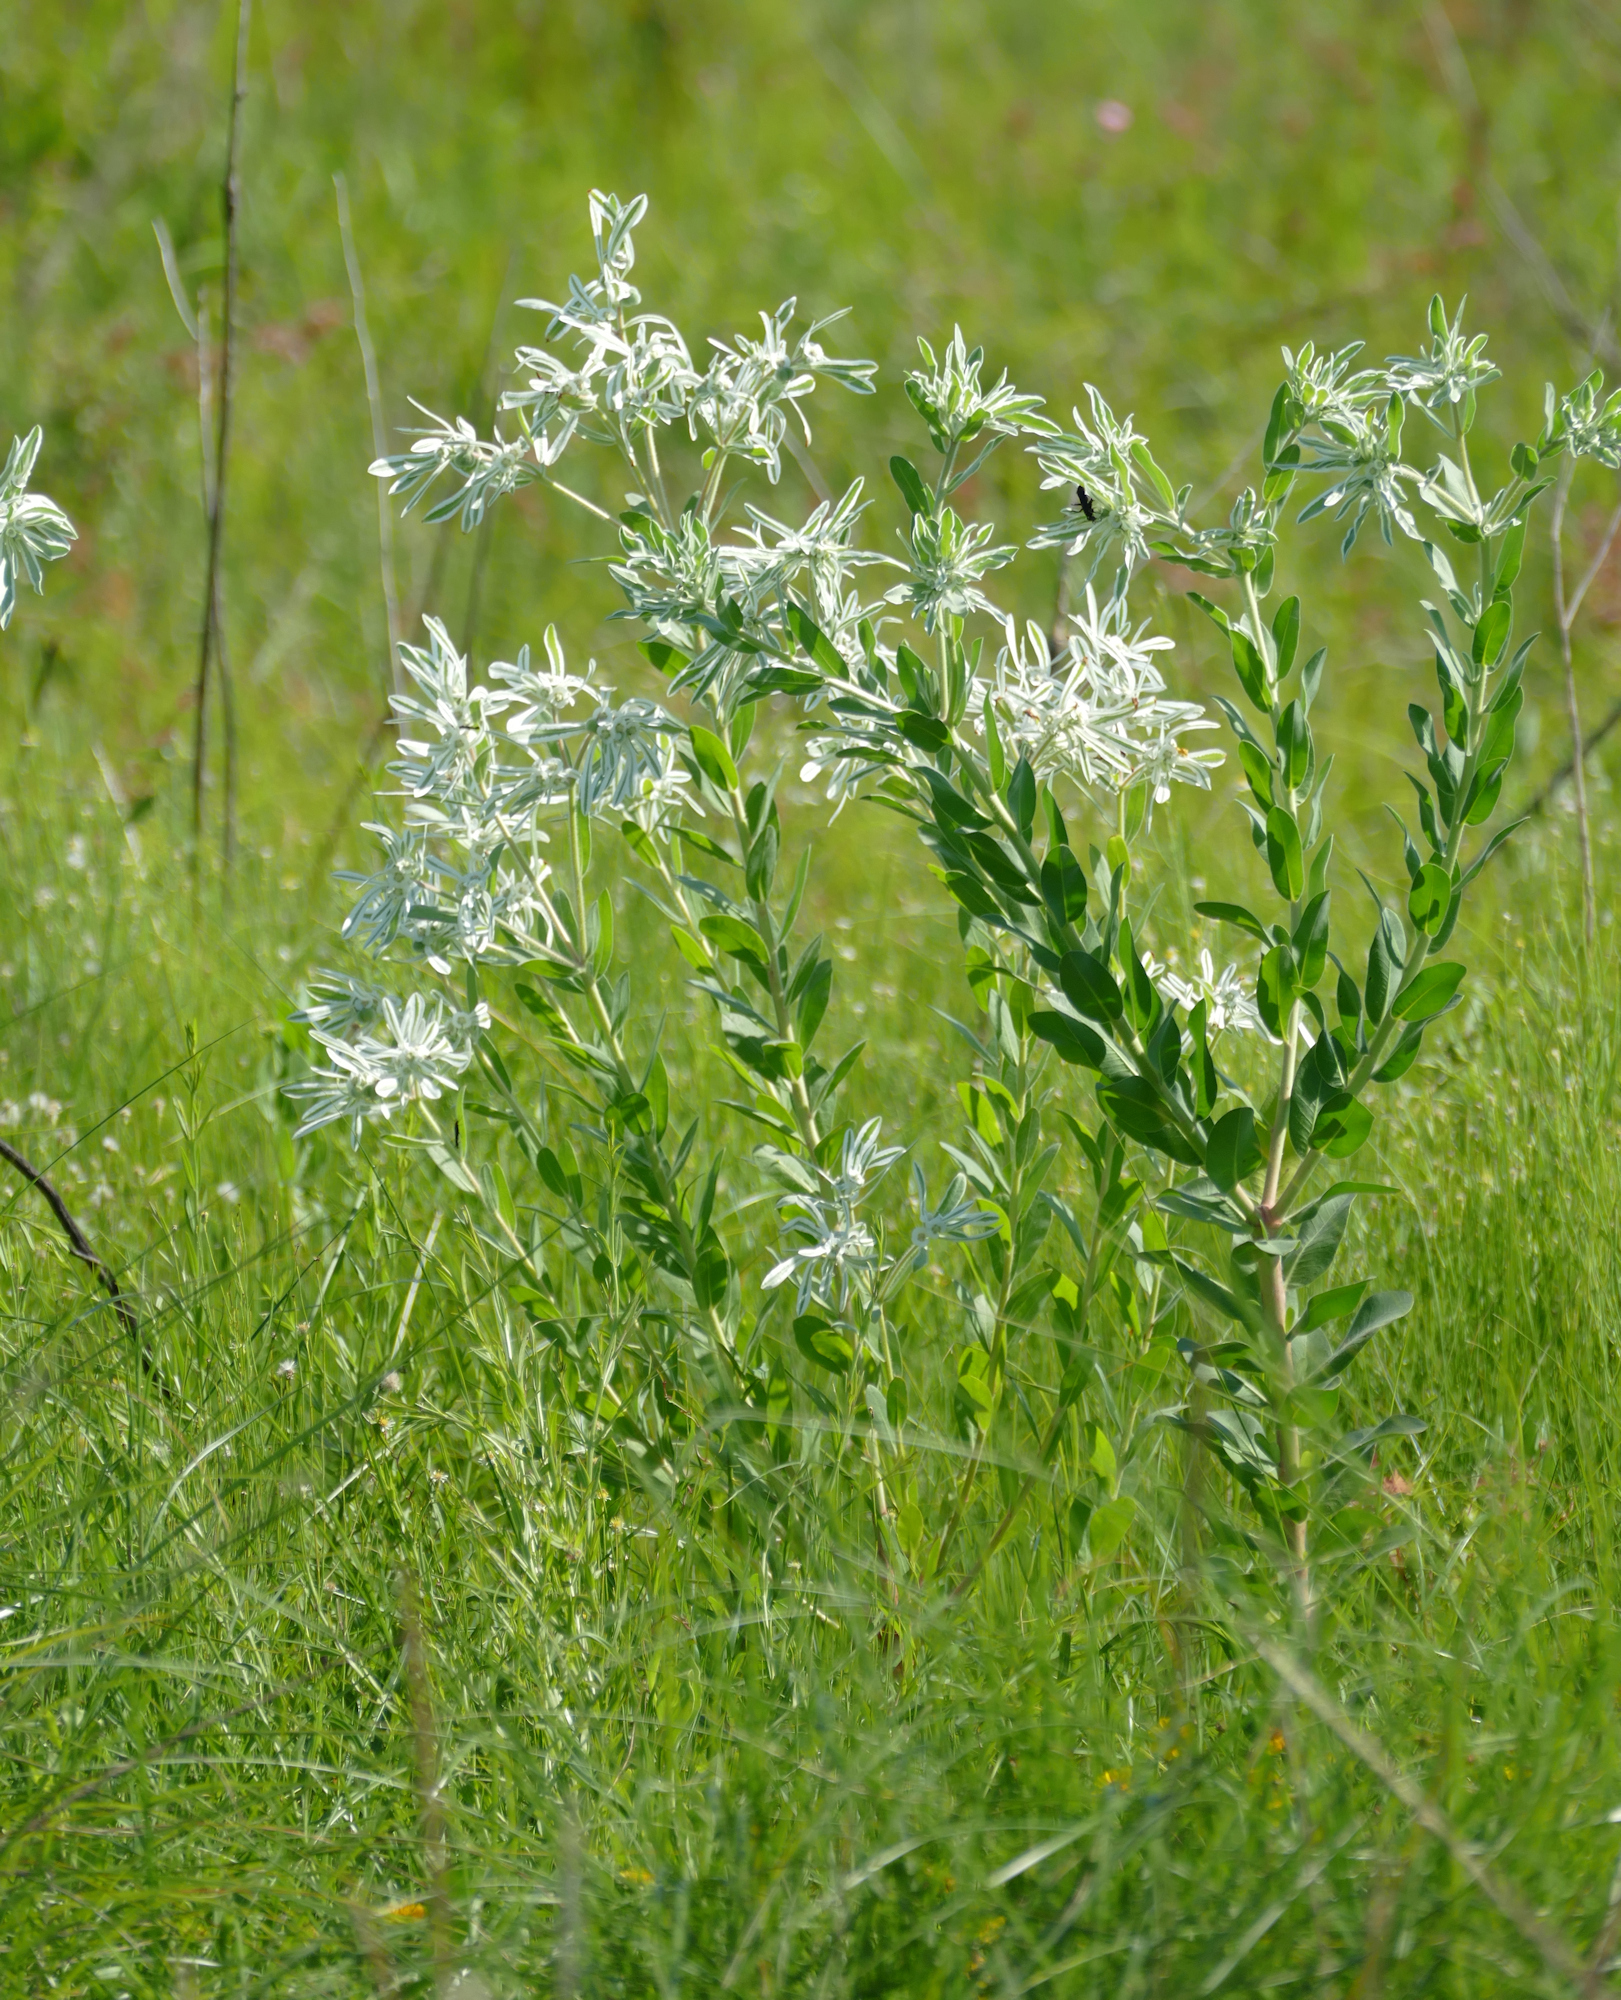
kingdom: Plantae
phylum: Tracheophyta
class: Magnoliopsida
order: Malpighiales
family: Euphorbiaceae
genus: Euphorbia
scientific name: Euphorbia bicolor
